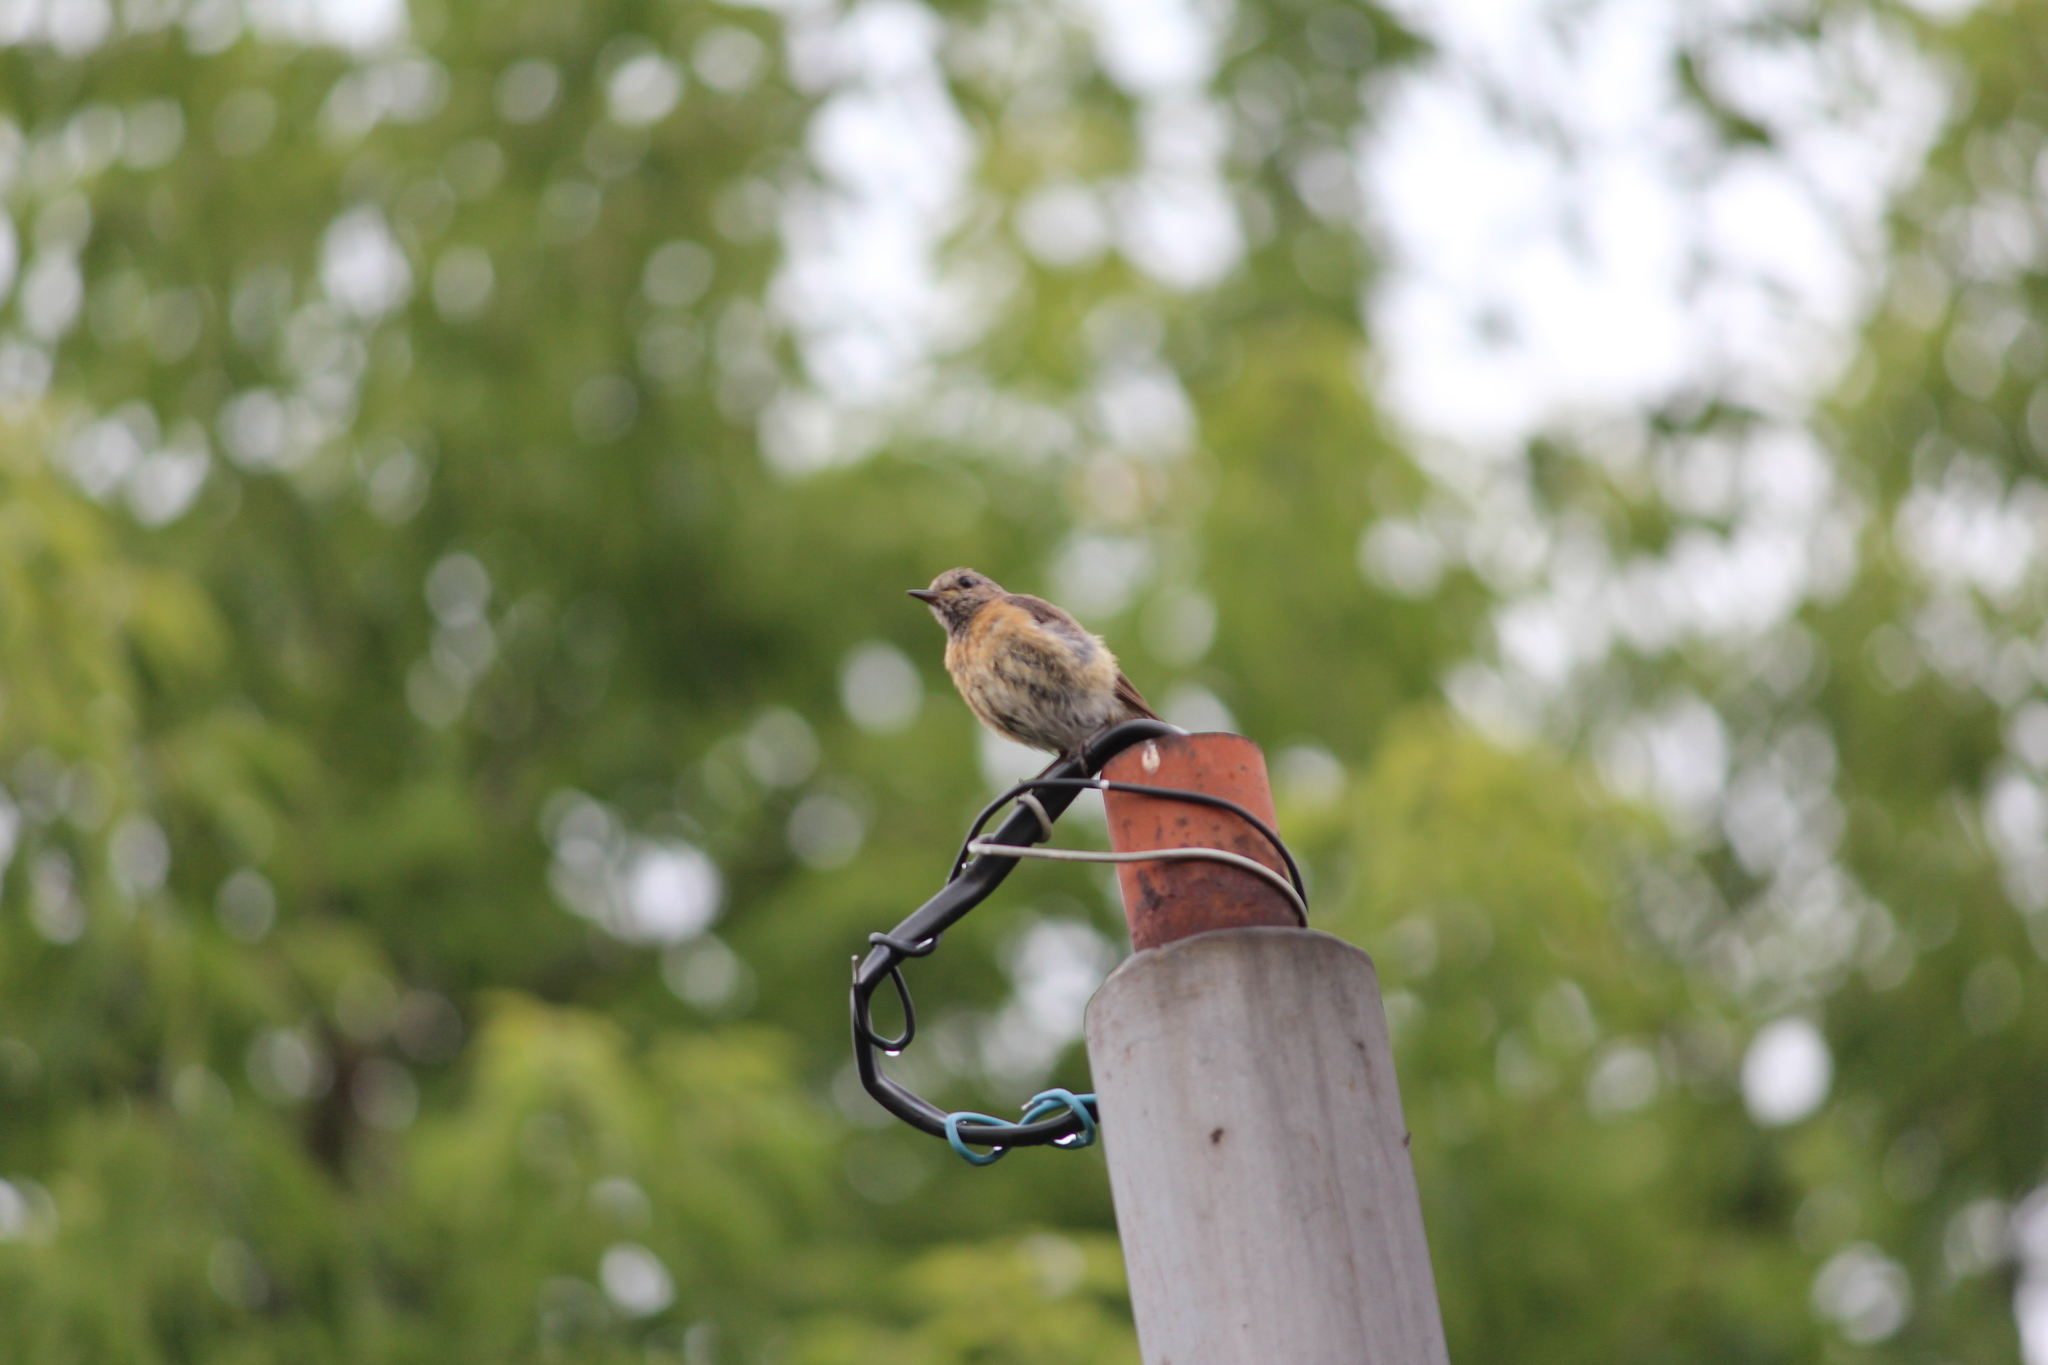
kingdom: Animalia
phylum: Chordata
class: Aves
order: Passeriformes
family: Muscicapidae
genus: Phoenicurus
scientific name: Phoenicurus phoenicurus
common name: Common redstart
